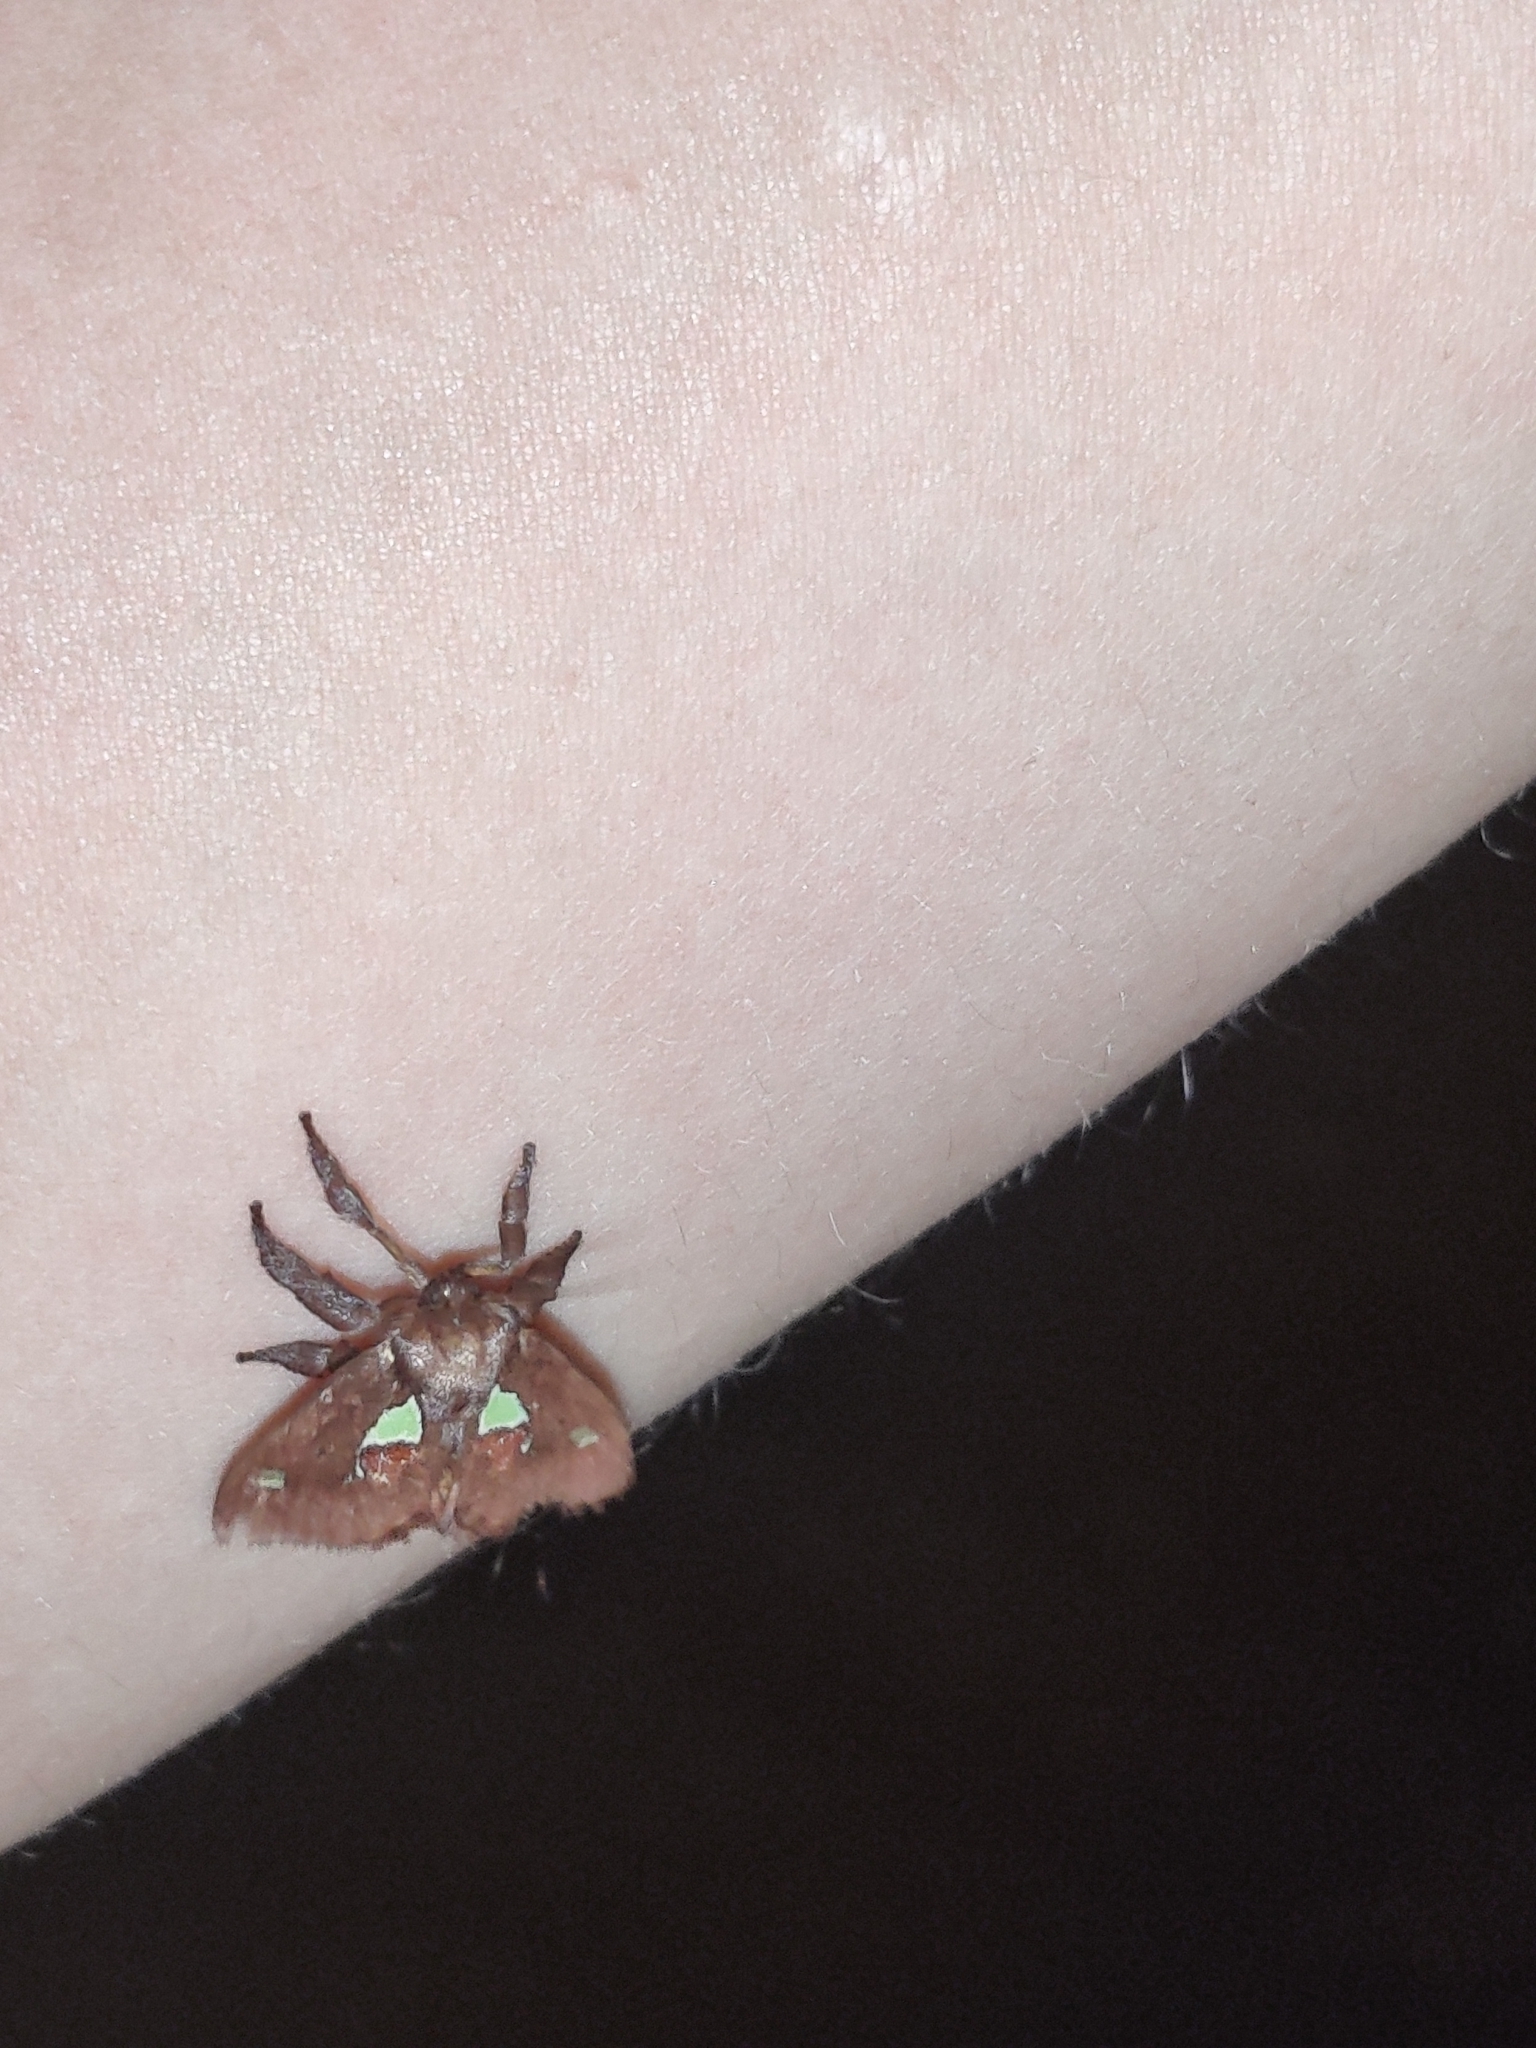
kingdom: Animalia
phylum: Arthropoda
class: Insecta
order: Lepidoptera
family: Limacodidae
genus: Euclea
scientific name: Euclea delphinii
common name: Spiny oak-slug moth
